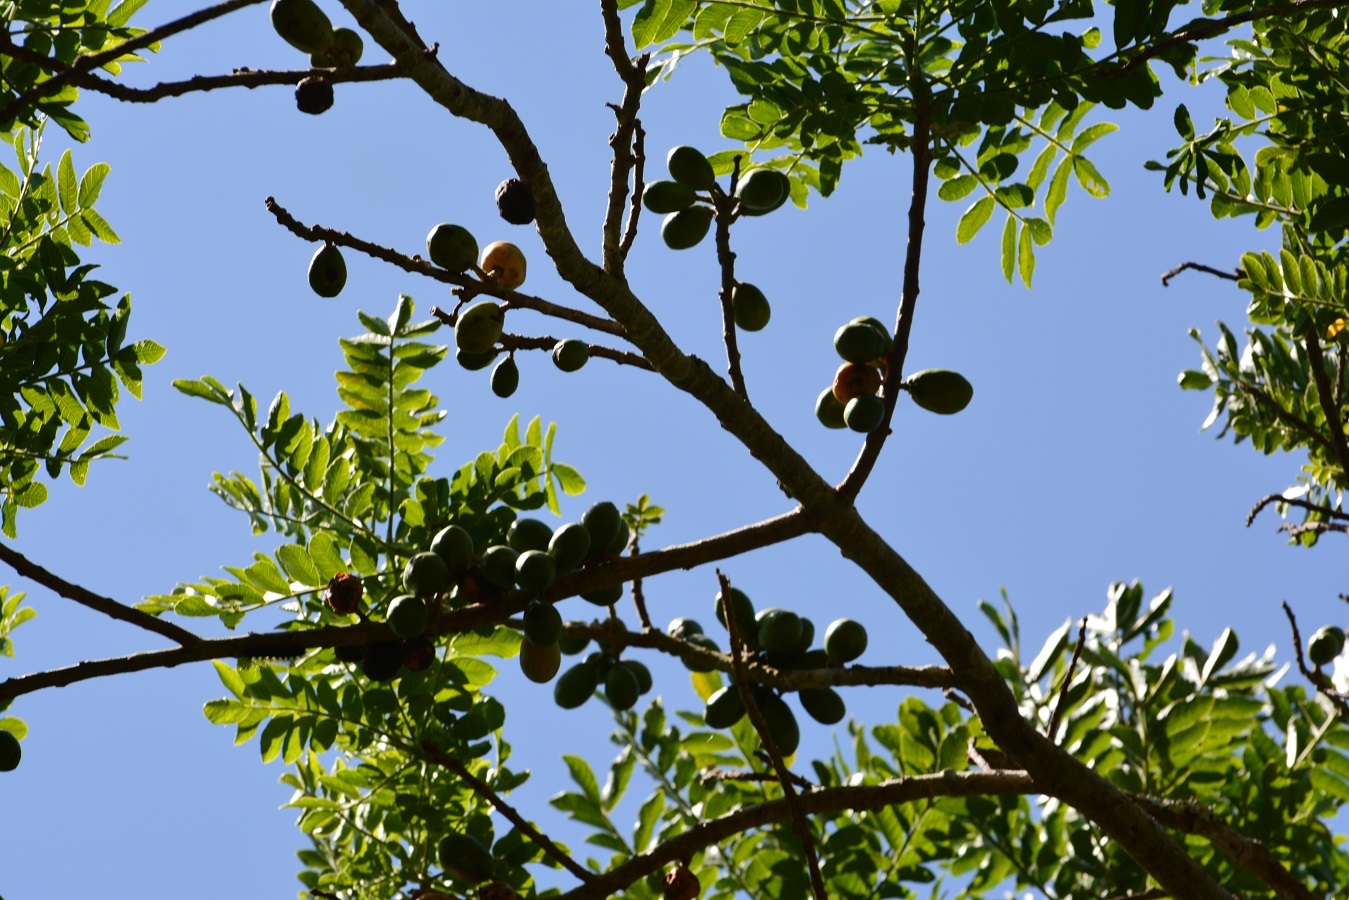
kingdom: Plantae
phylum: Tracheophyta
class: Magnoliopsida
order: Sapindales
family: Anacardiaceae
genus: Spondias
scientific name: Spondias purpurea
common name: Purple mombin
